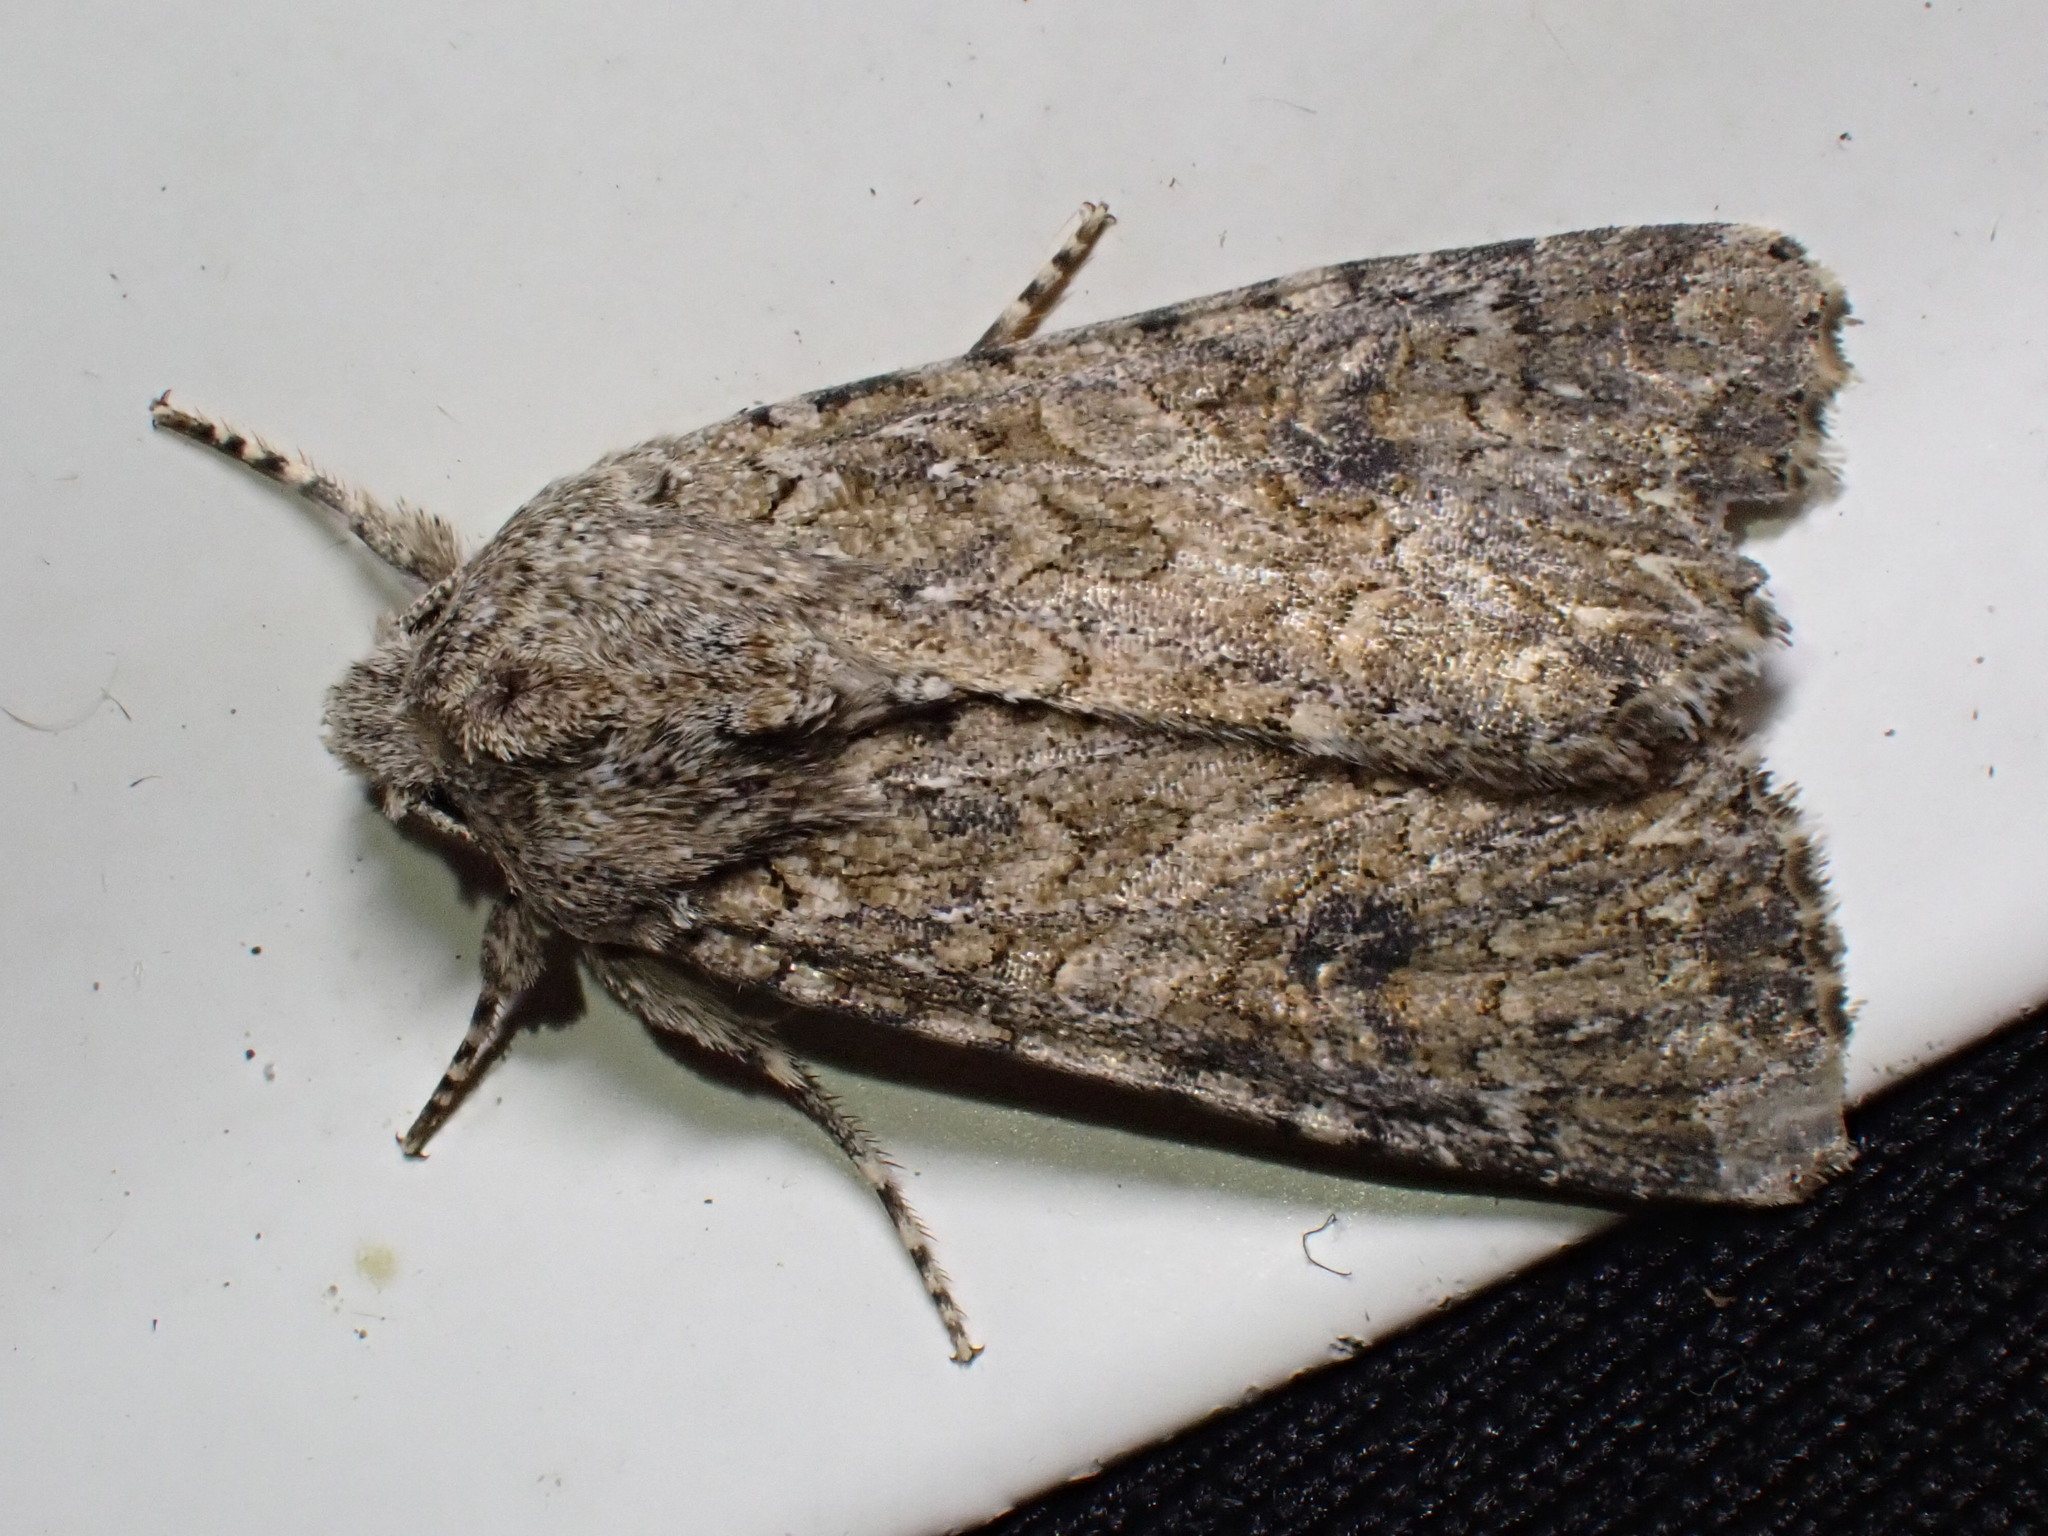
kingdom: Animalia
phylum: Arthropoda
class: Insecta
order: Lepidoptera
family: Noctuidae
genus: Anarta
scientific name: Anarta trifolii
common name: Clover cutworm moth
